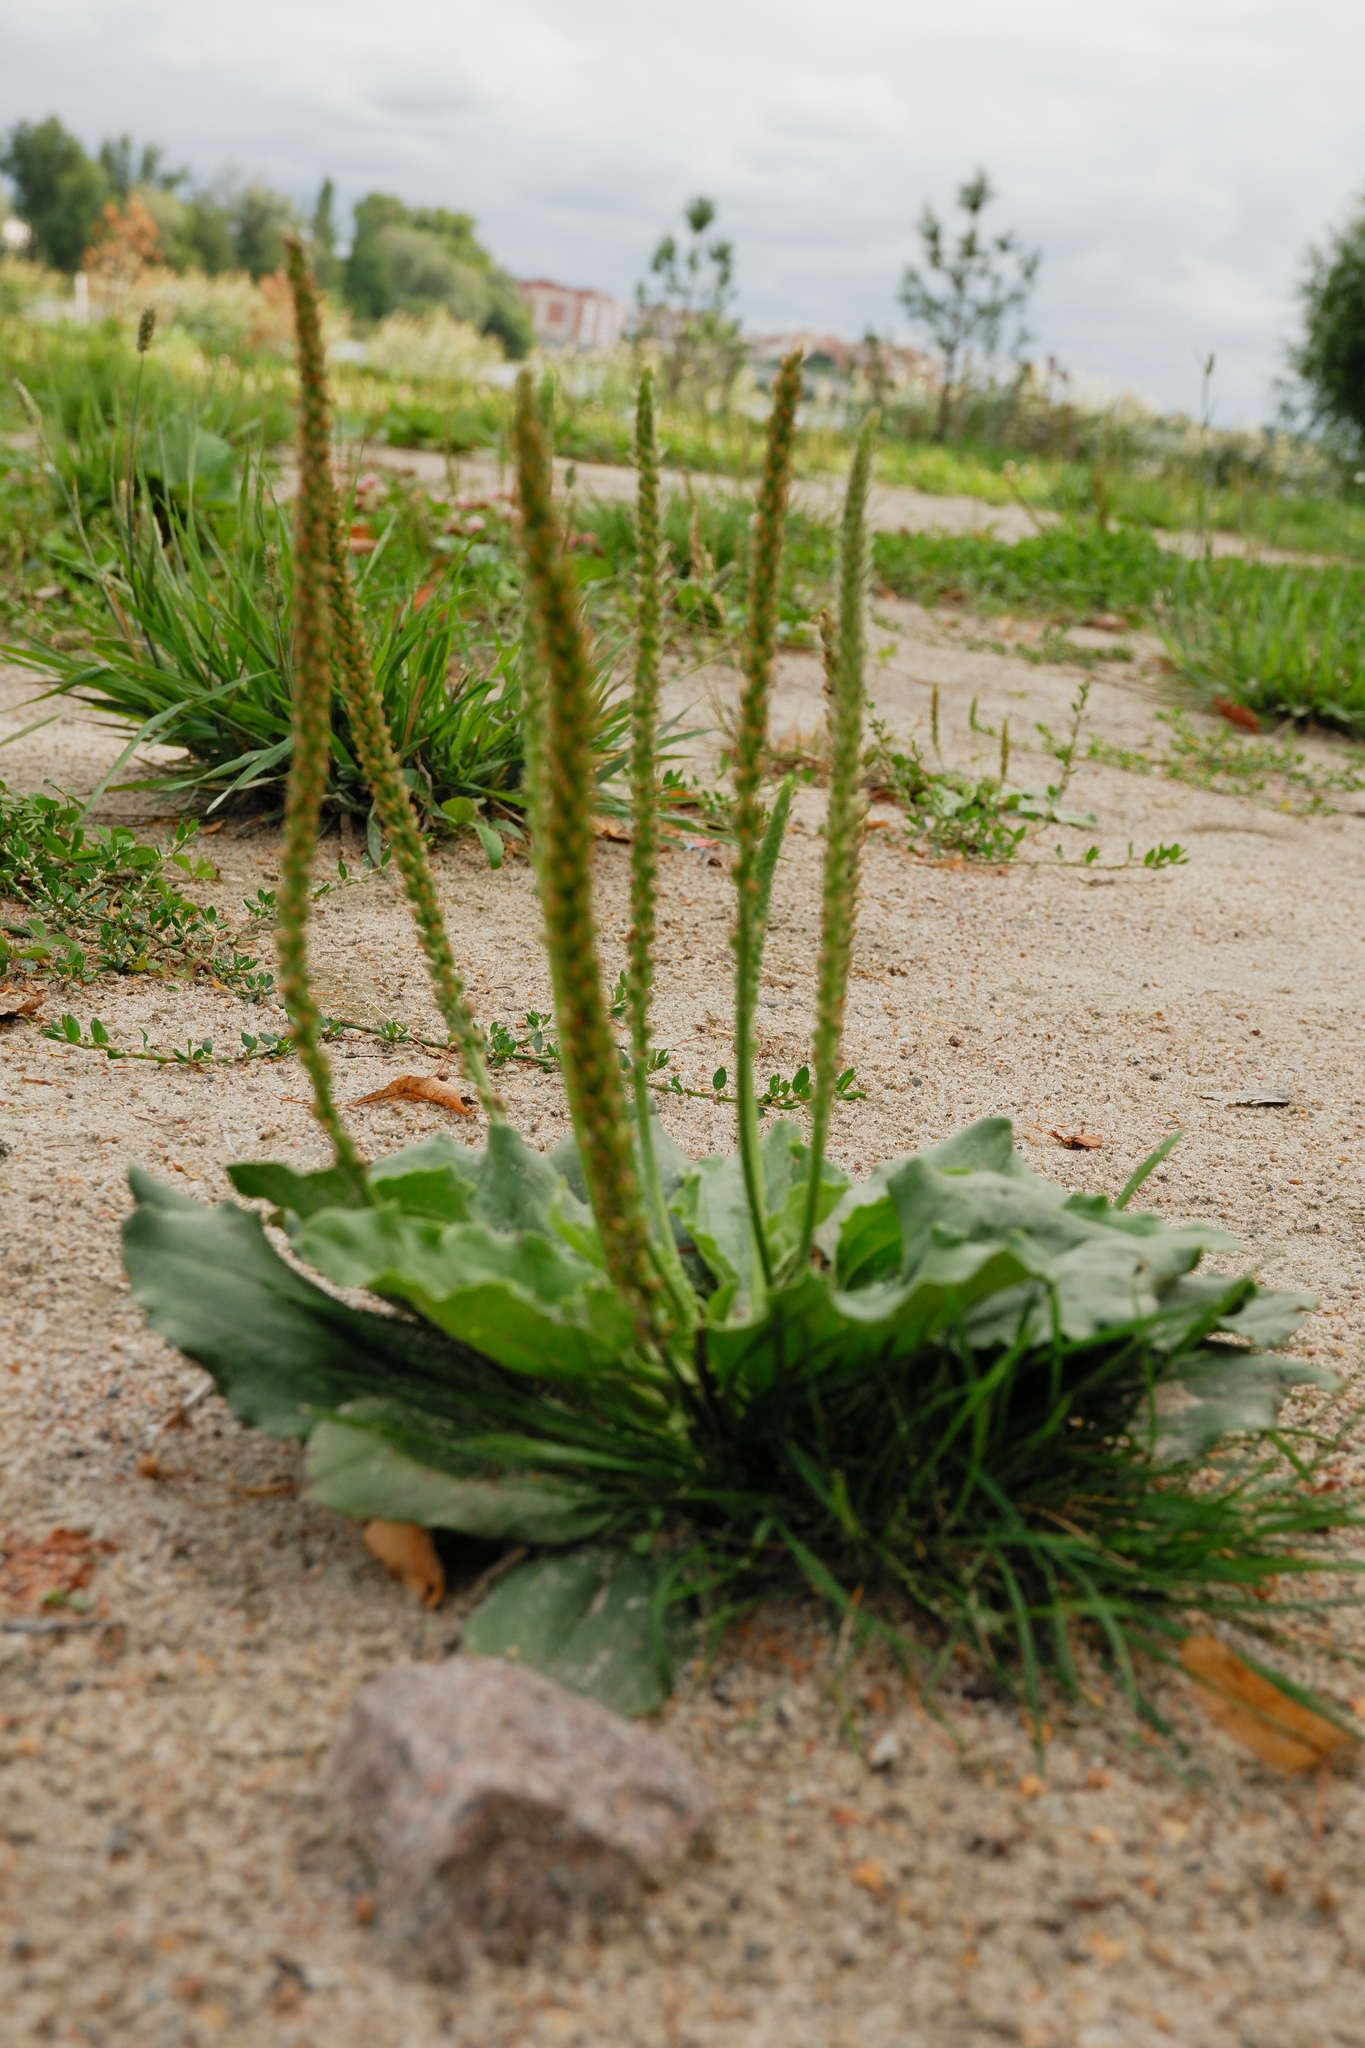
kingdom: Plantae
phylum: Tracheophyta
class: Magnoliopsida
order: Lamiales
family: Plantaginaceae
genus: Plantago
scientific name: Plantago major
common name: Common plantain
